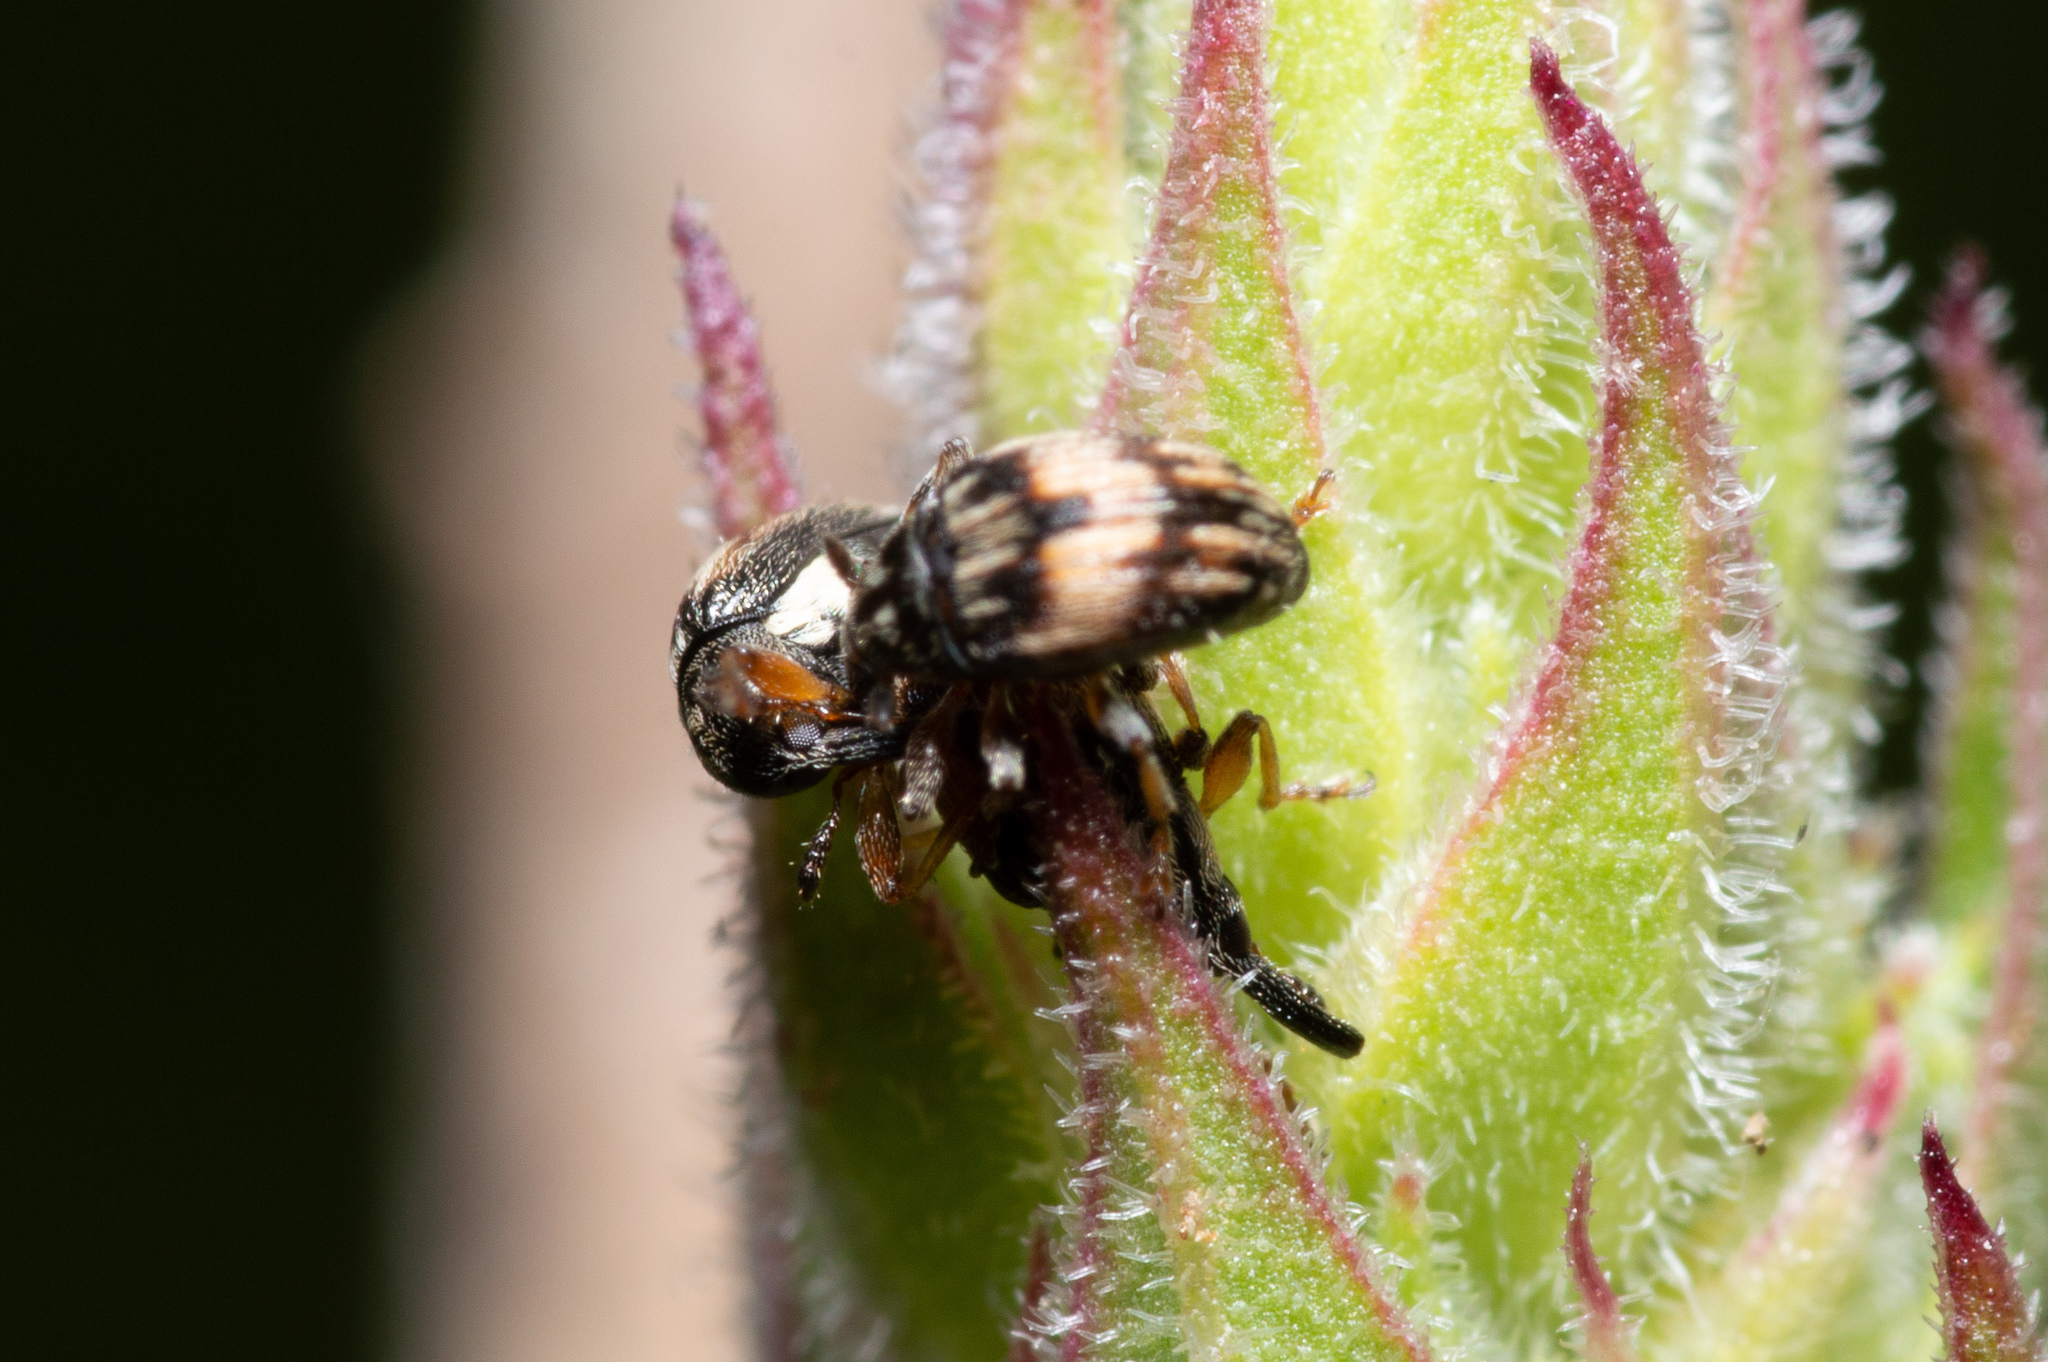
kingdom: Animalia
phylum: Arthropoda
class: Insecta
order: Coleoptera
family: Brentidae
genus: Nanophyes
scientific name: Nanophyes marmoratus
